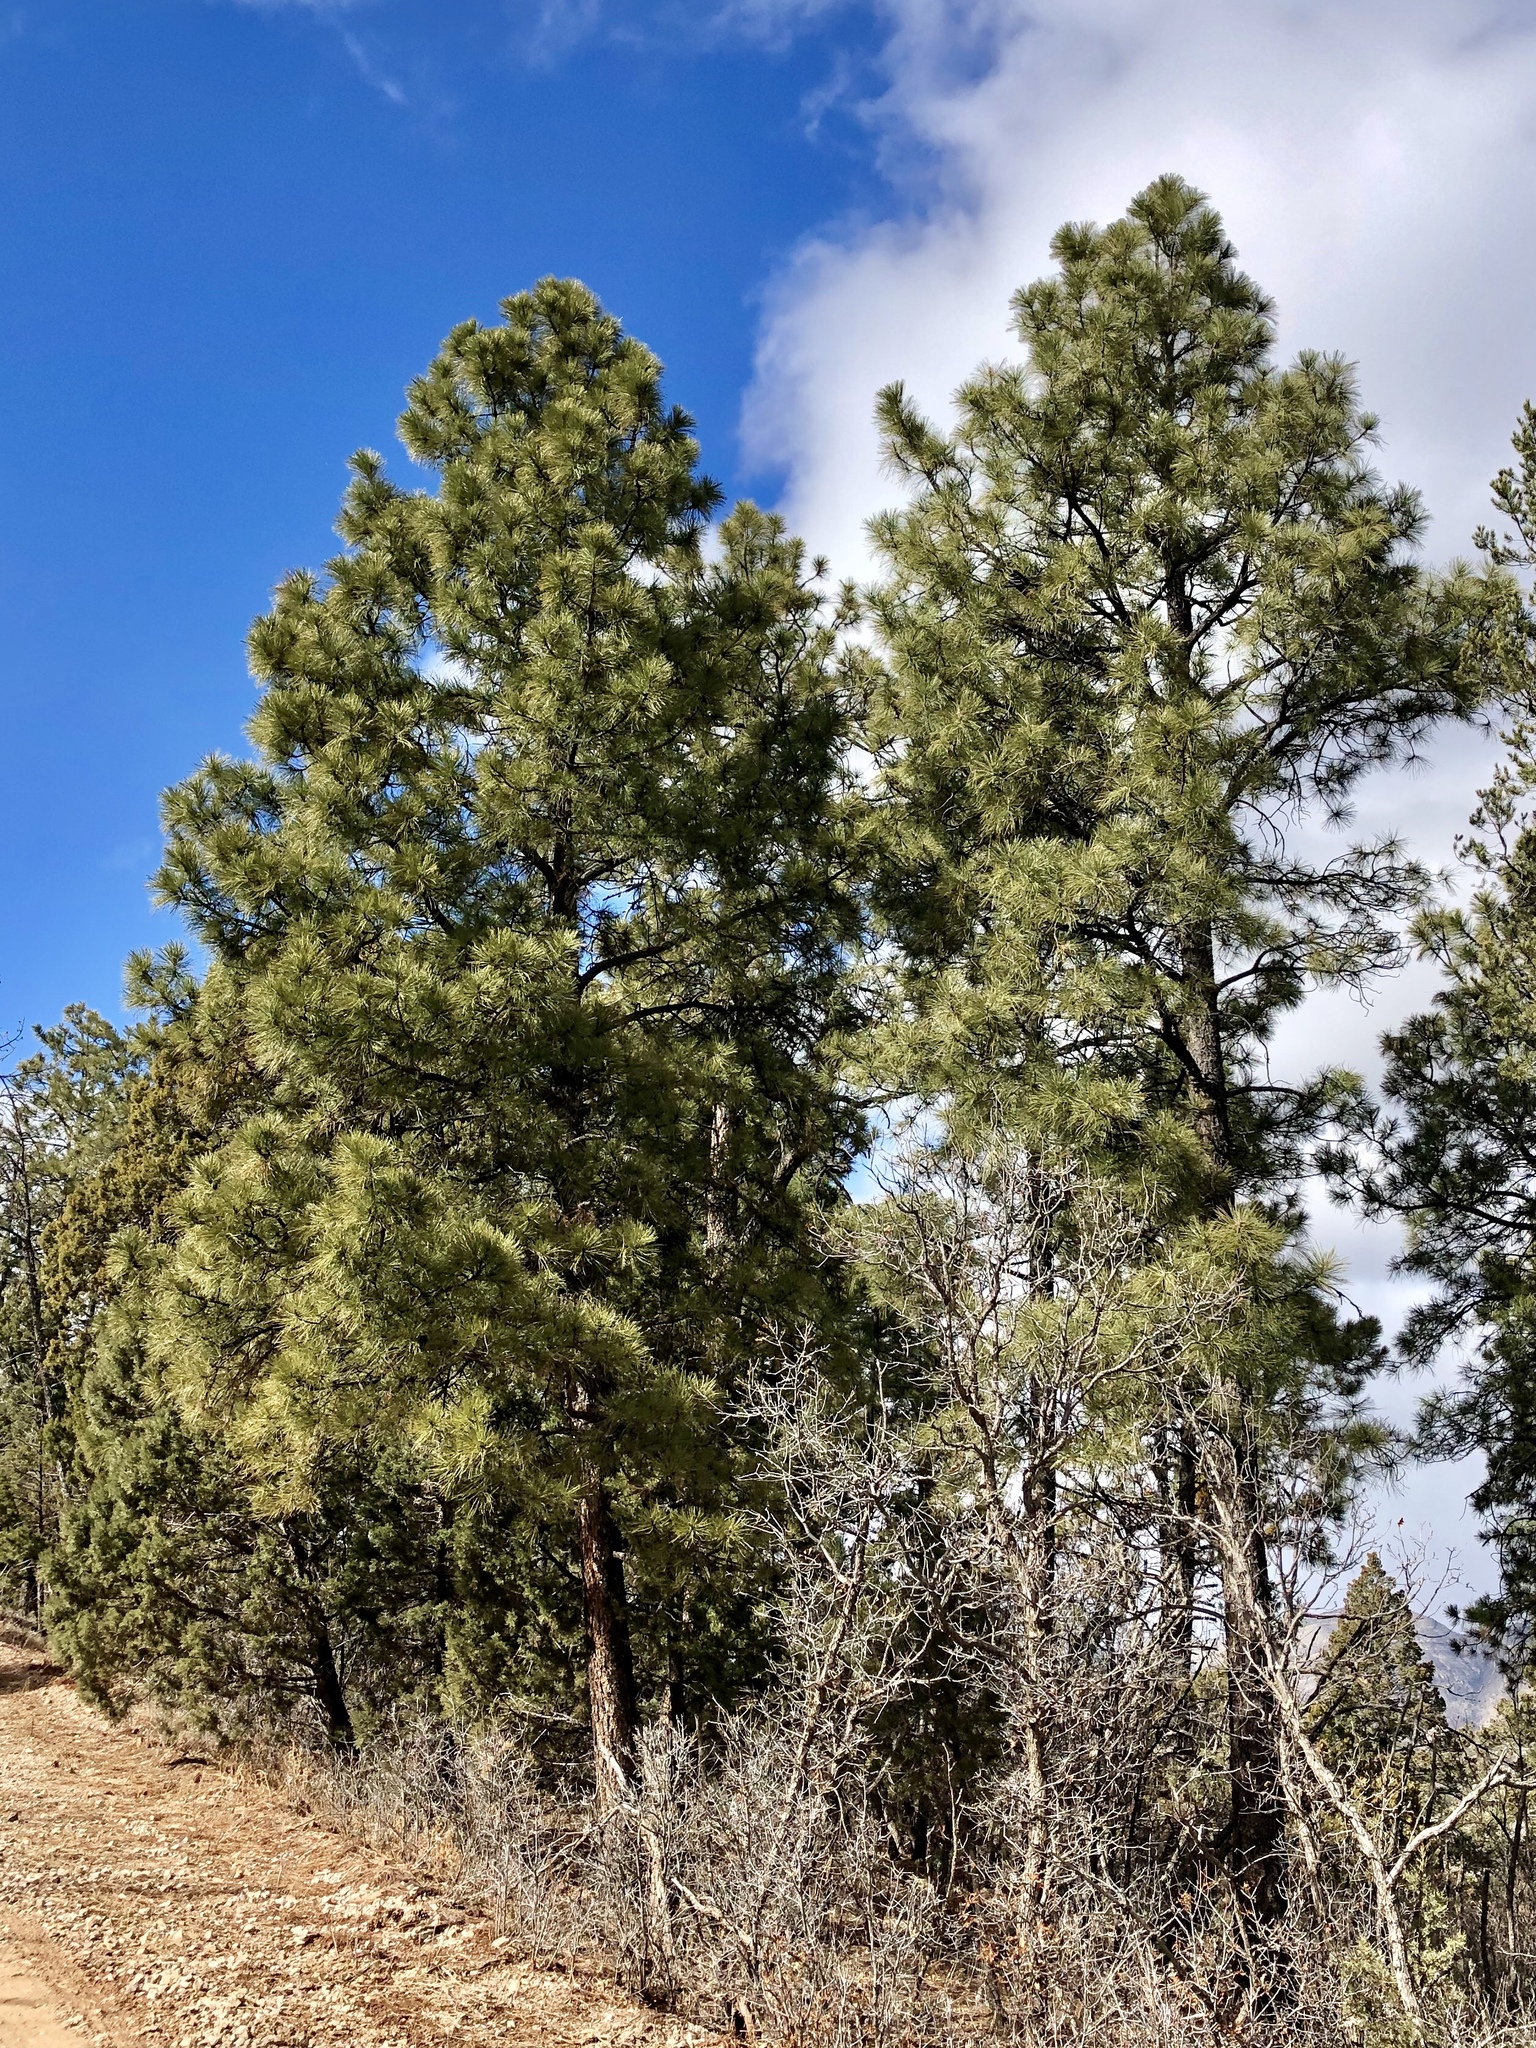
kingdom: Plantae
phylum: Tracheophyta
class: Pinopsida
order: Pinales
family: Pinaceae
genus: Pinus
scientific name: Pinus ponderosa
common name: Western yellow-pine
